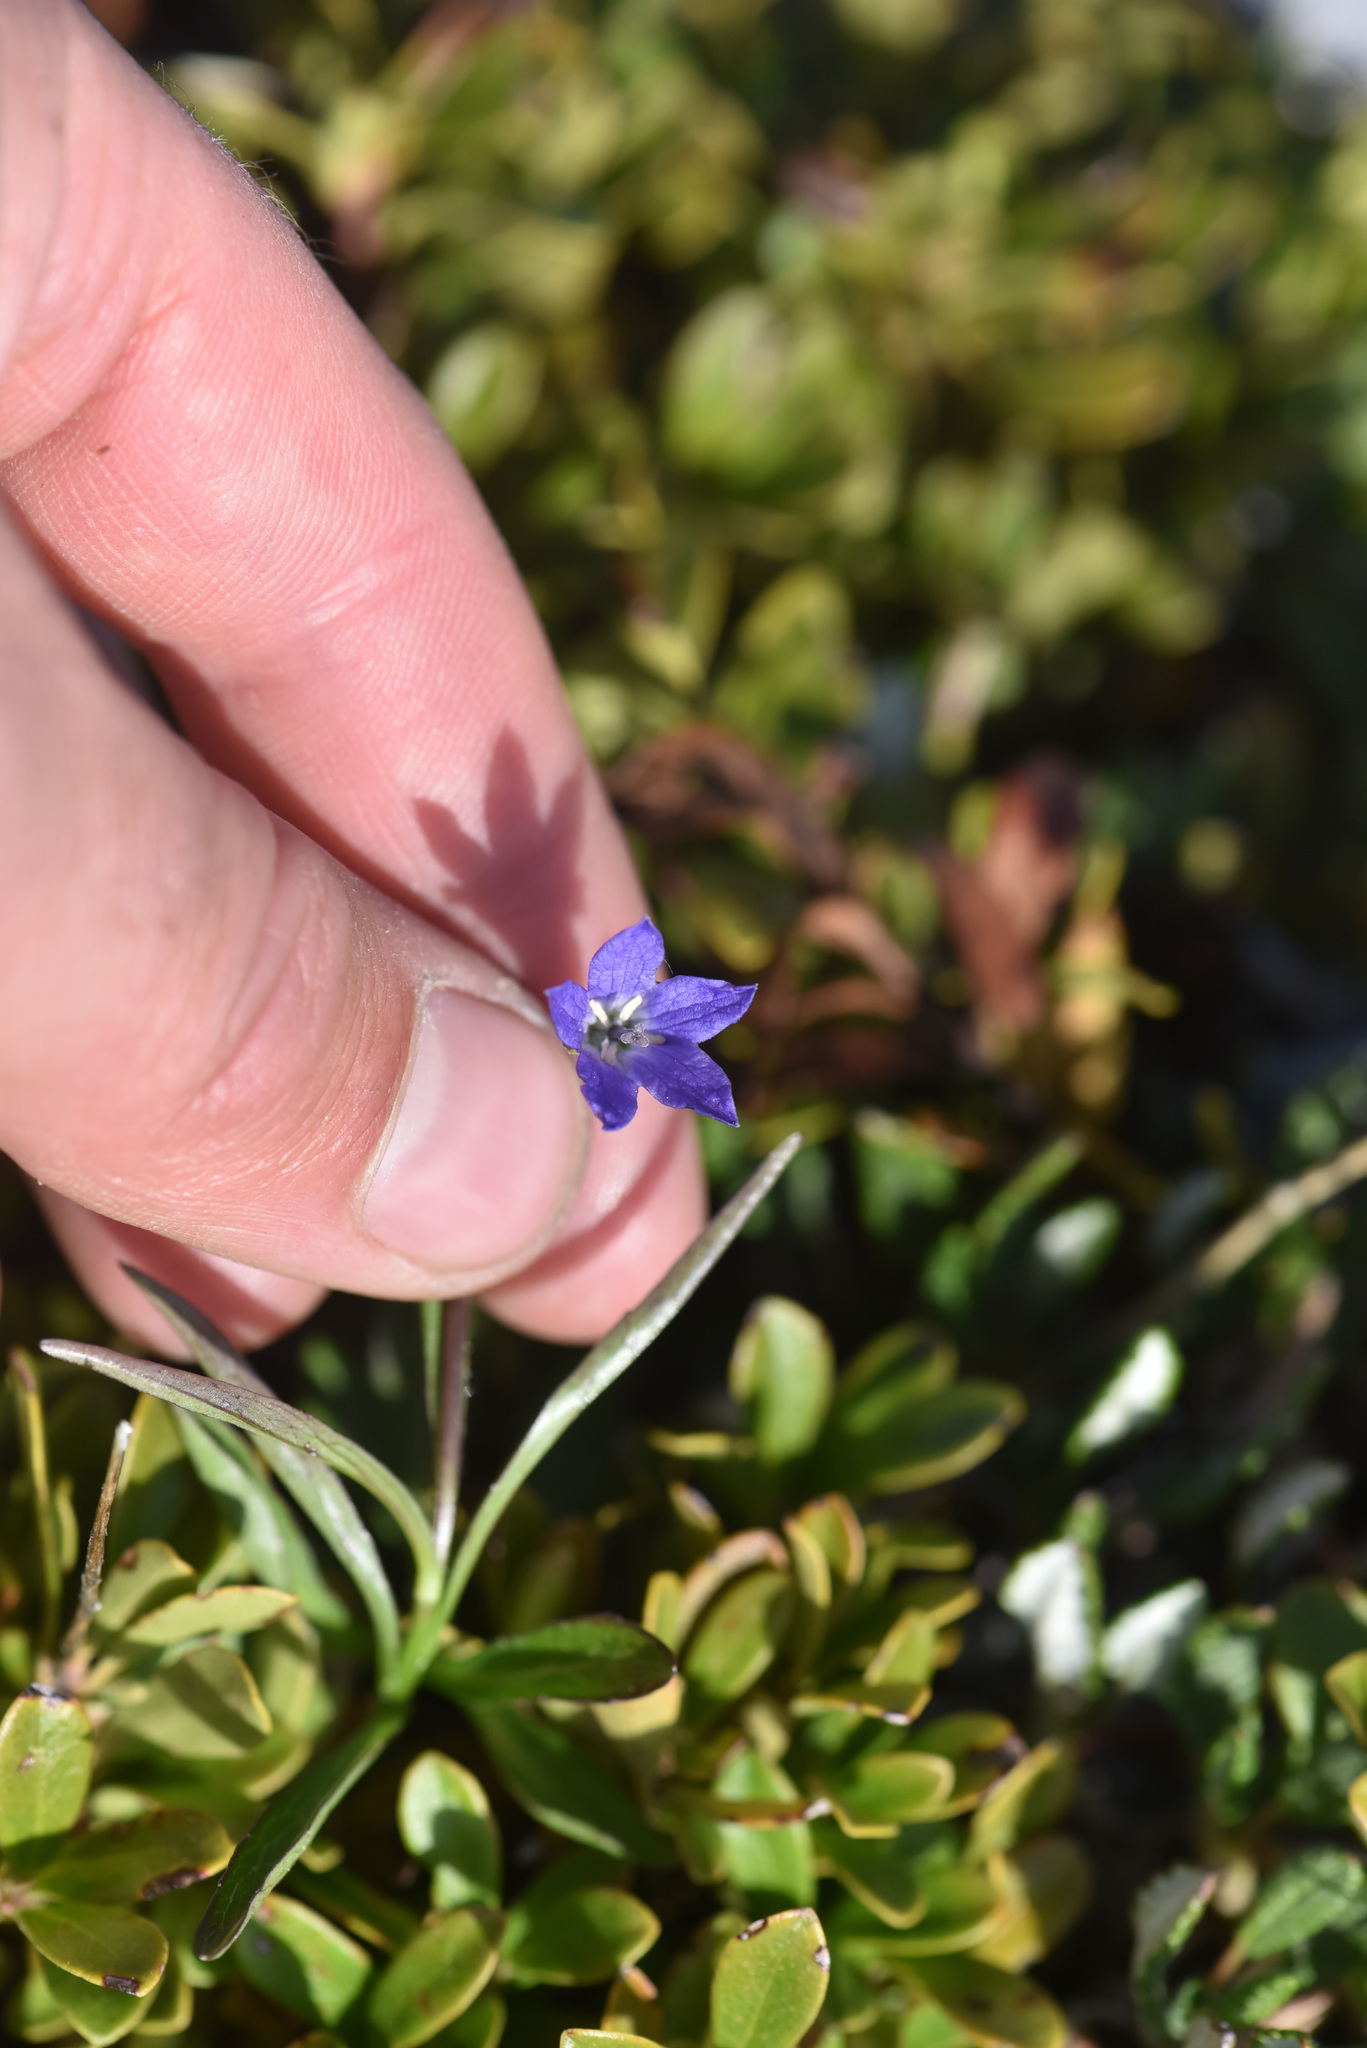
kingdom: Plantae
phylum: Tracheophyta
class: Magnoliopsida
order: Asterales
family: Campanulaceae
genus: Campanula
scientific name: Campanula uniflora
